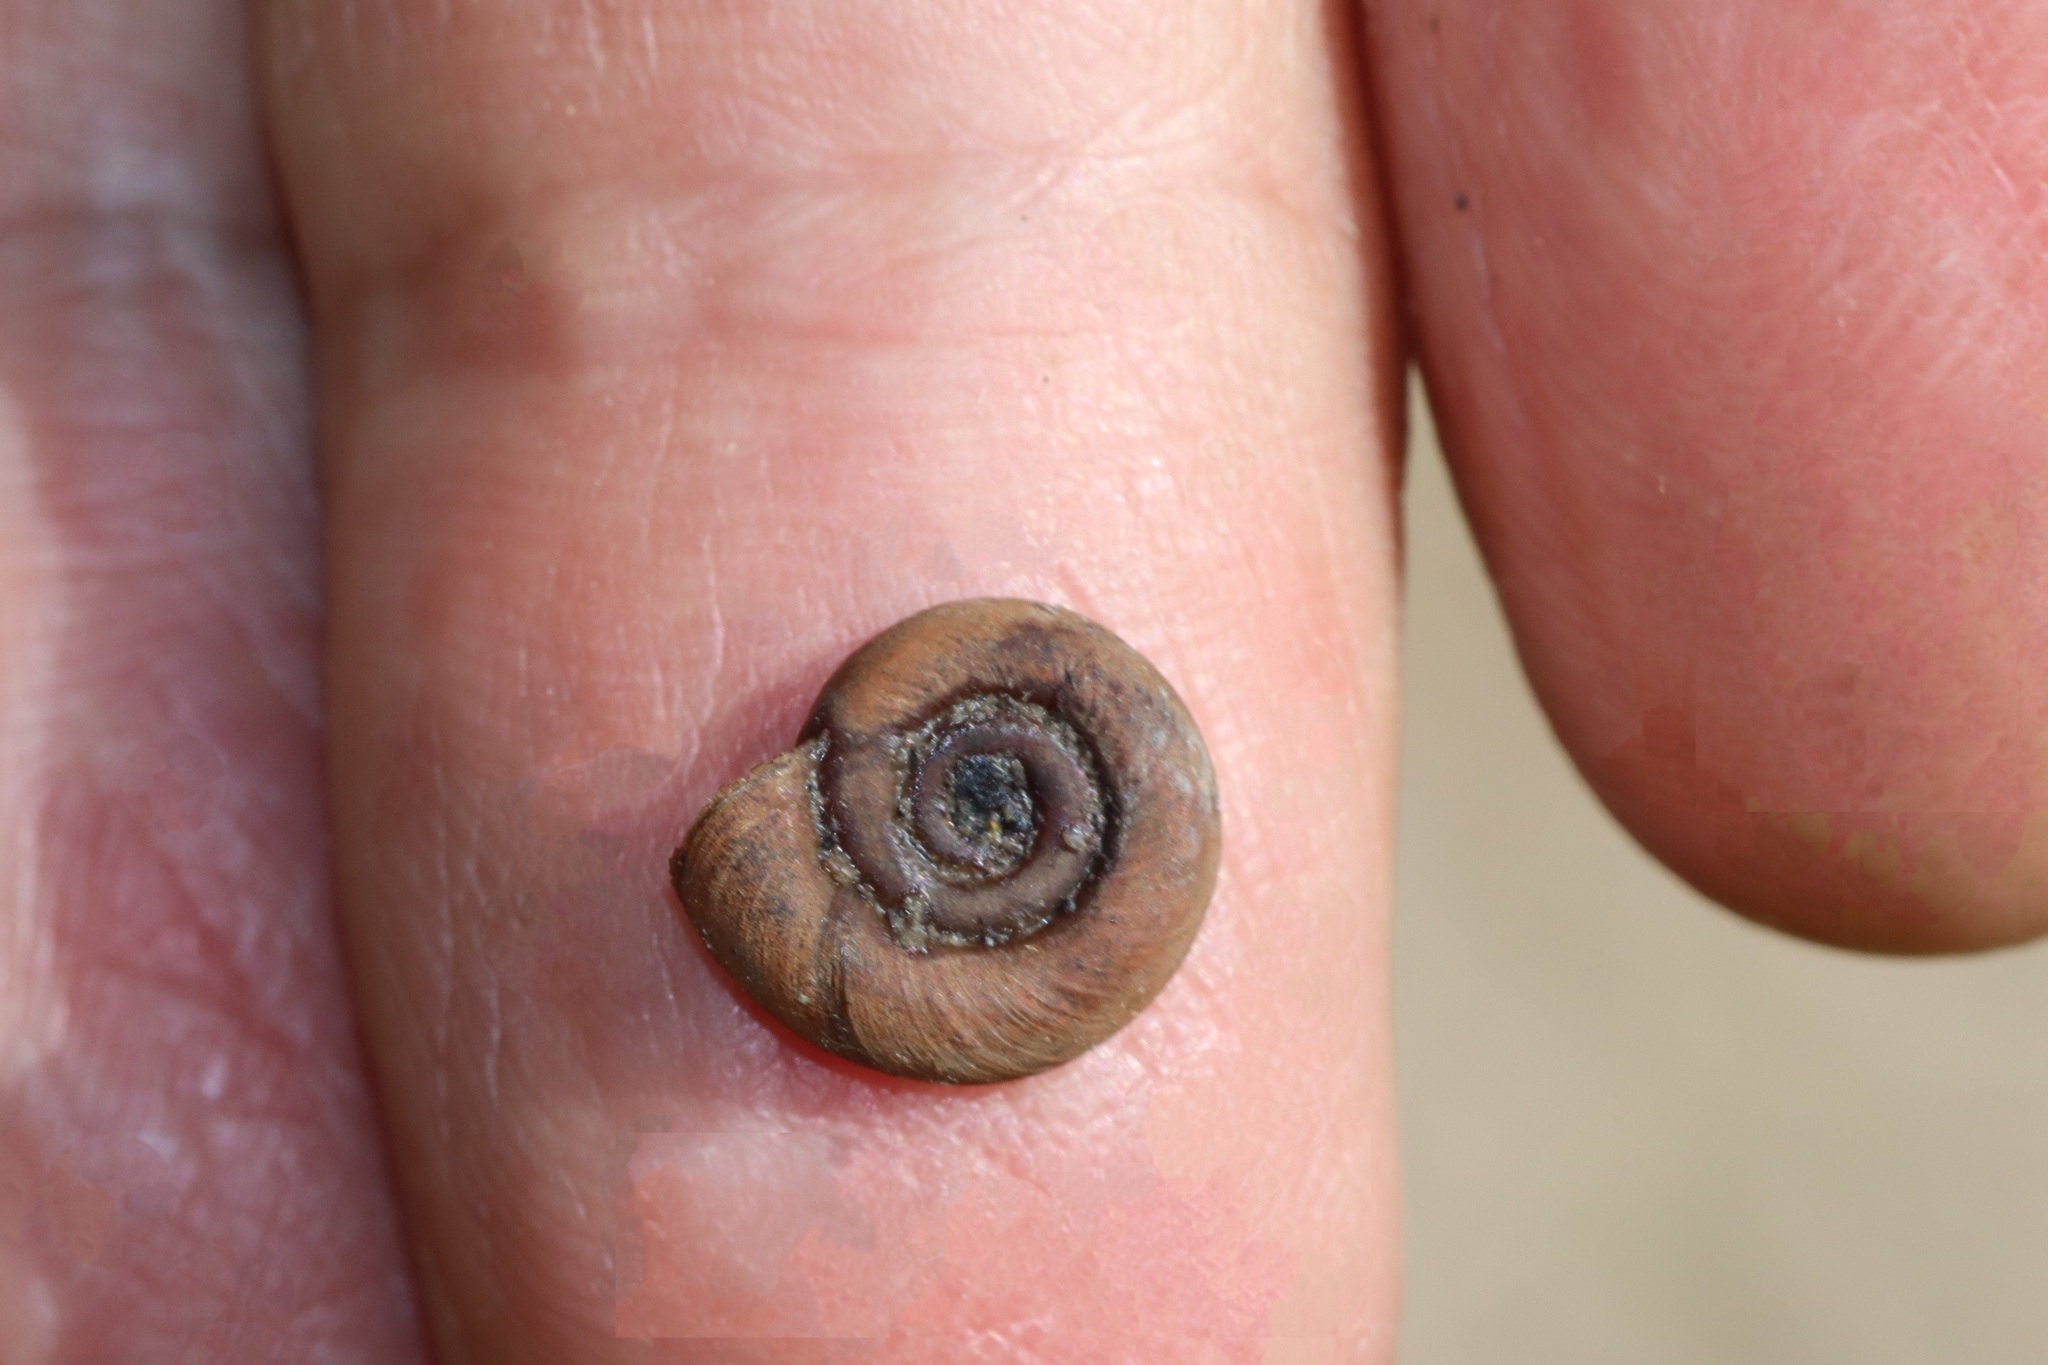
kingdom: Animalia
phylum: Mollusca
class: Gastropoda
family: Planorbidae
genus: Planorbis
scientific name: Planorbis planorbis
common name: Margined ramshorn
